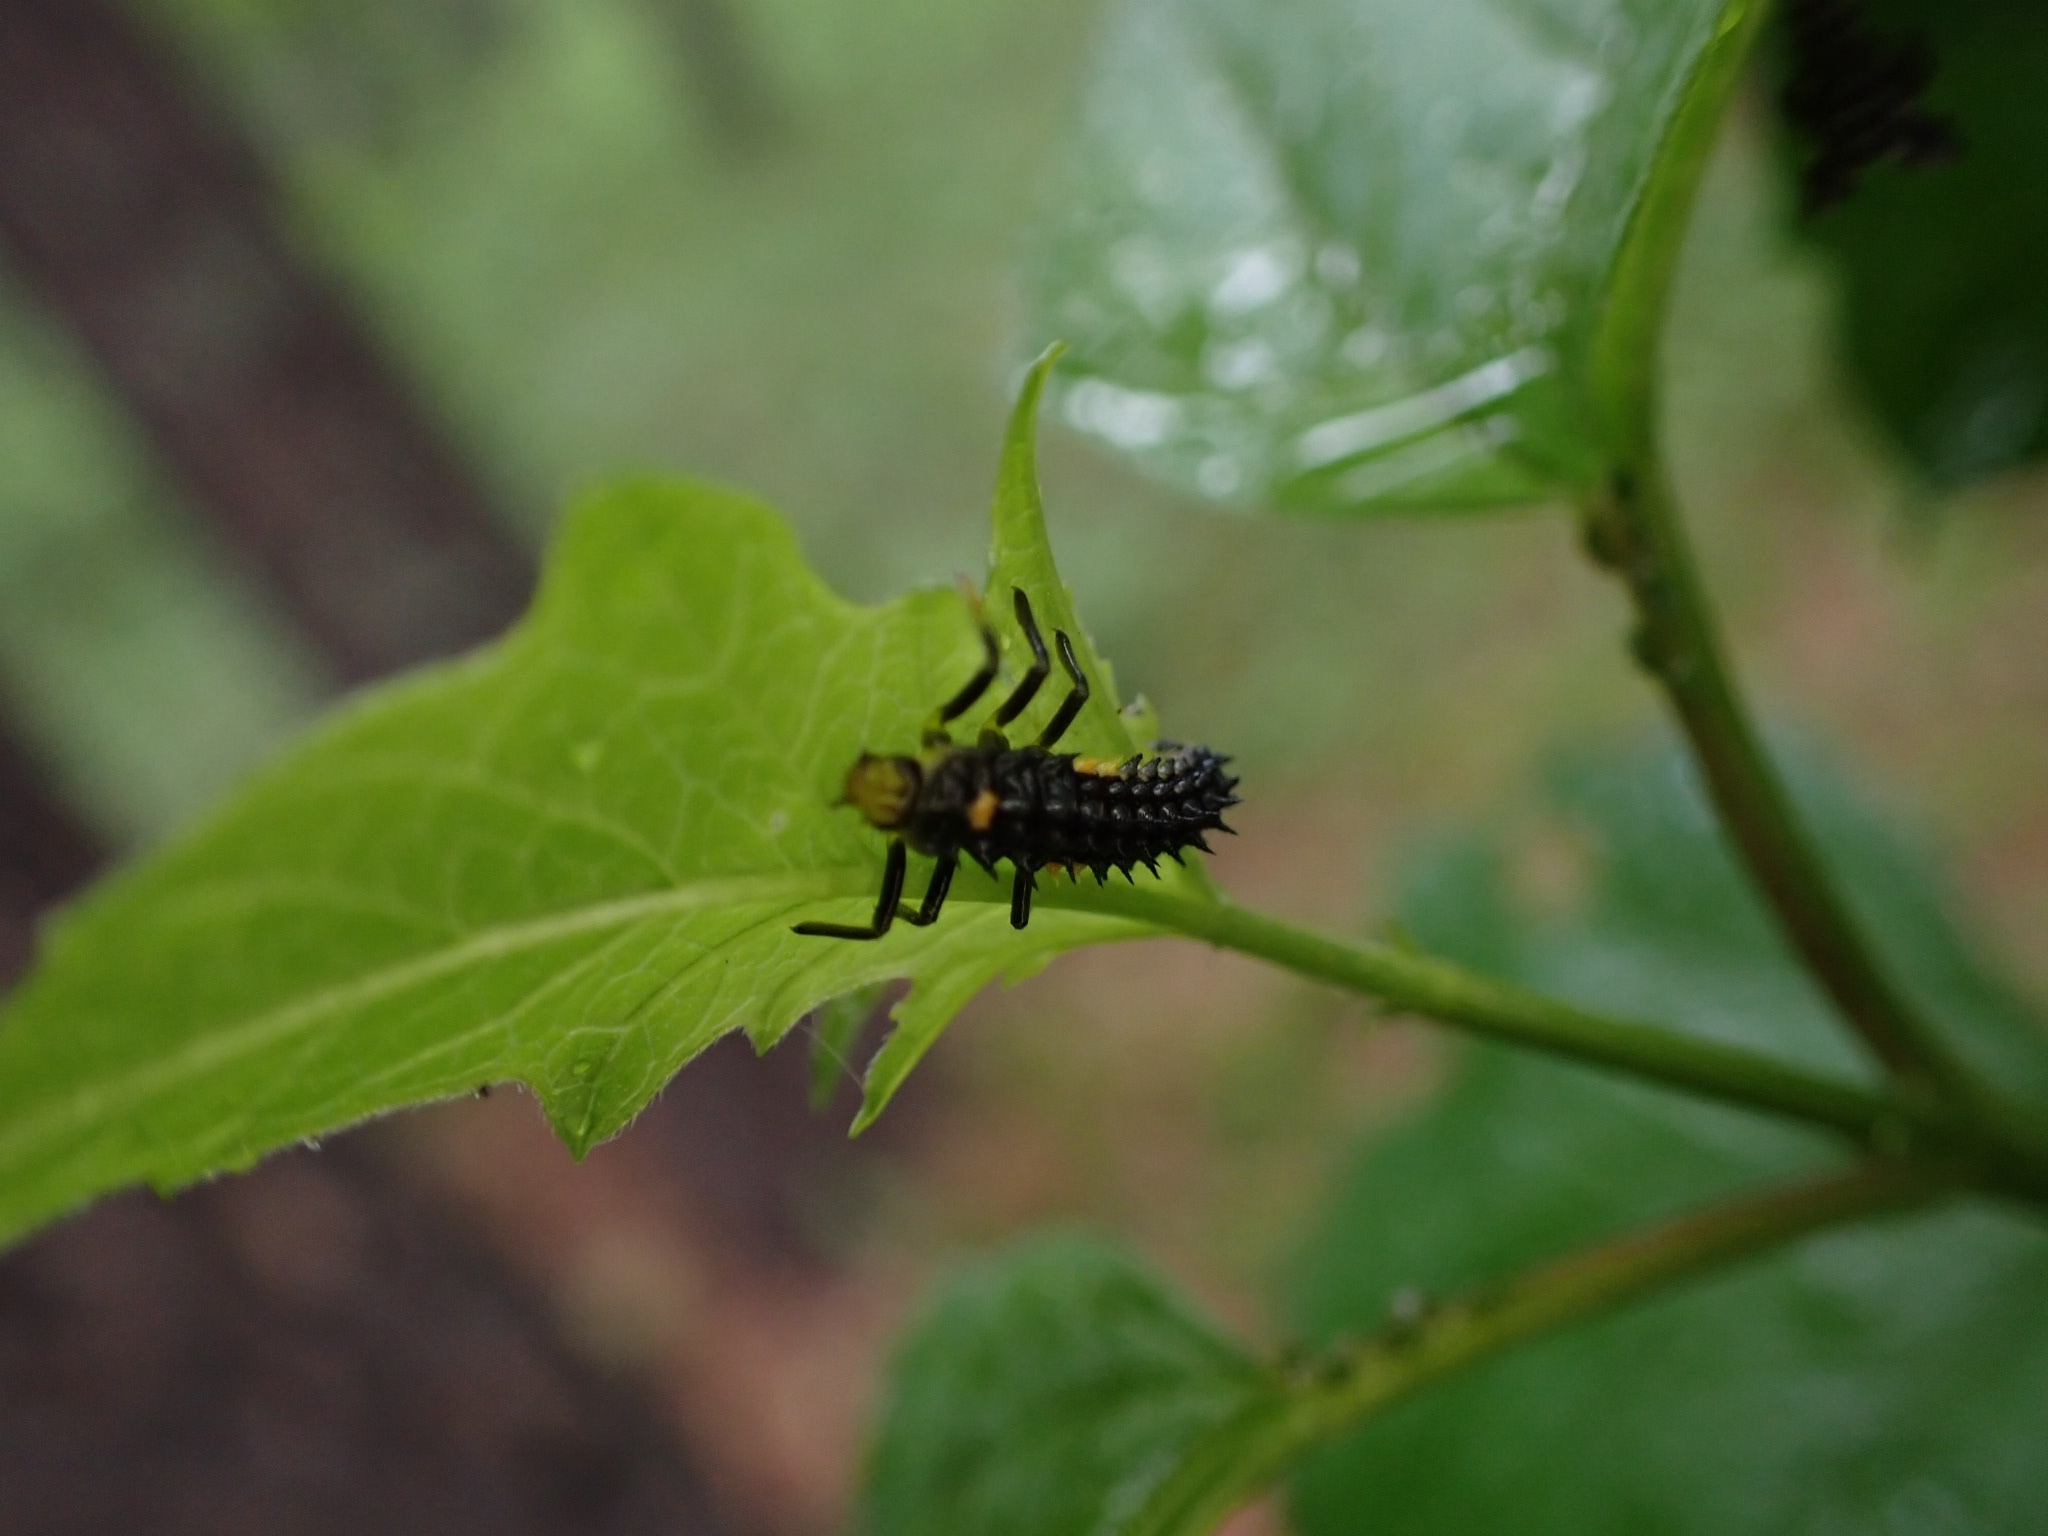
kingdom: Animalia
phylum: Arthropoda
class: Insecta
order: Coleoptera
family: Coccinellidae
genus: Anatis
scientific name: Anatis ocellata
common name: Eyed ladybird
